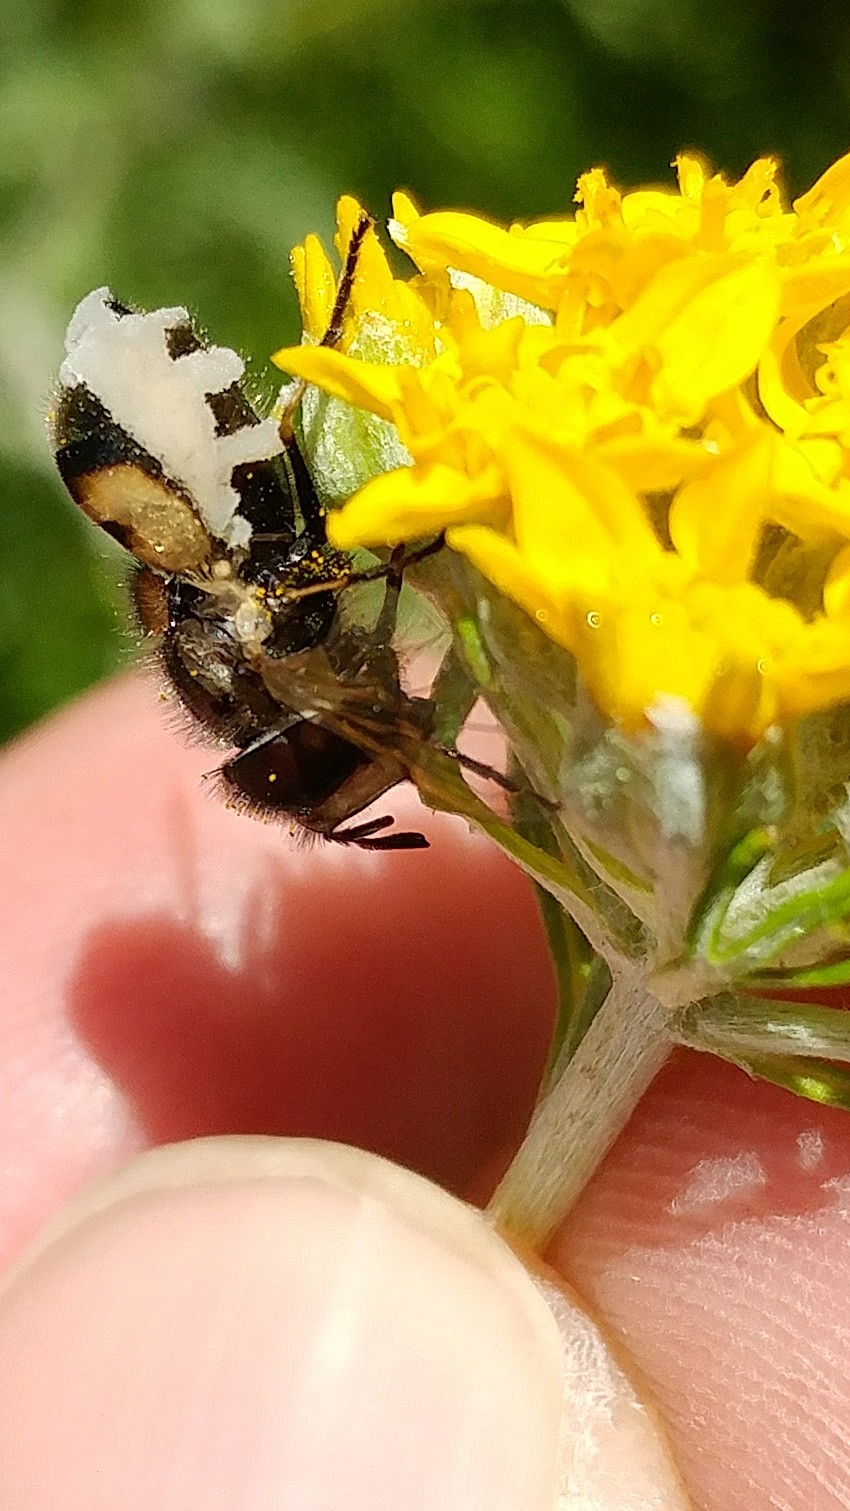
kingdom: Fungi
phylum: Entomophthoromycota
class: Entomophthoromycetes
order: Entomophthorales
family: Entomophthoraceae
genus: Entomophthora
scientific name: Entomophthora
